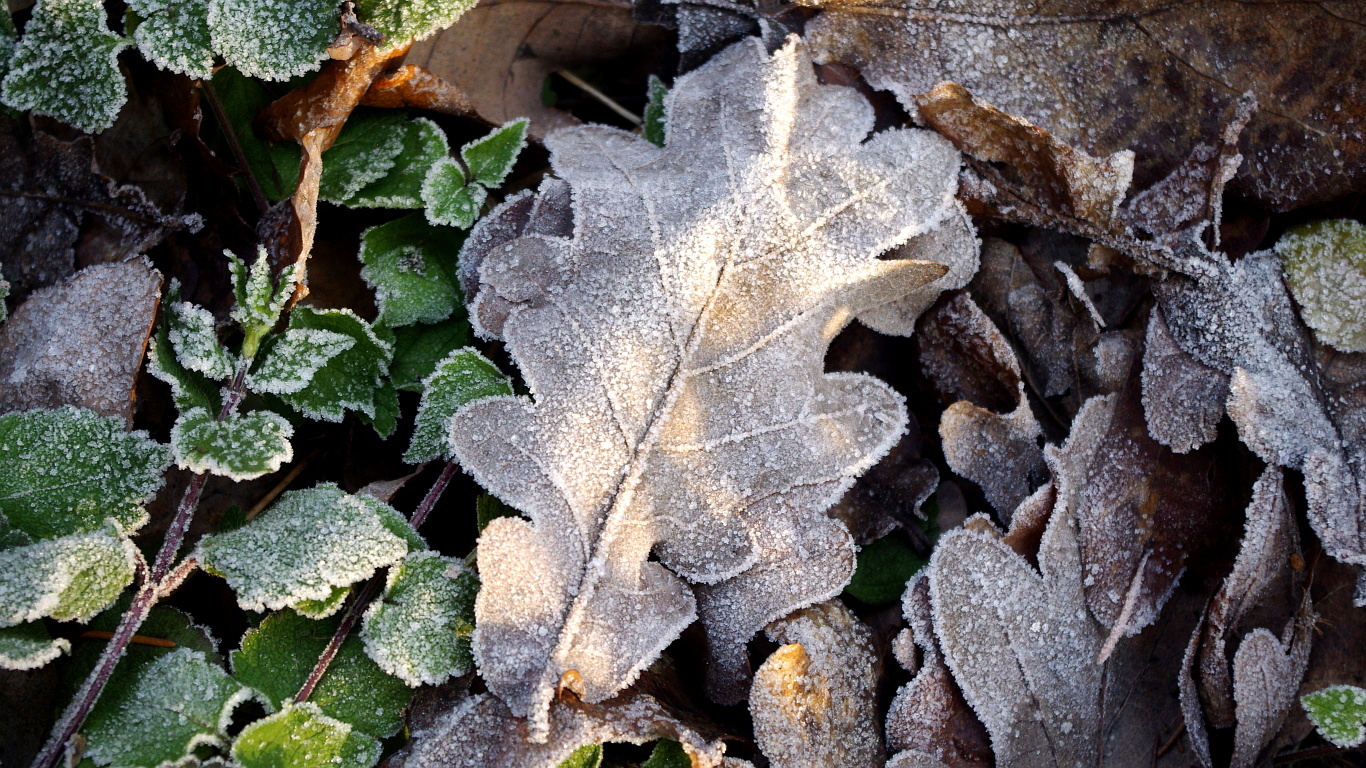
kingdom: Plantae
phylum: Tracheophyta
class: Magnoliopsida
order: Fagales
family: Fagaceae
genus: Quercus
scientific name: Quercus robur
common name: Pedunculate oak
